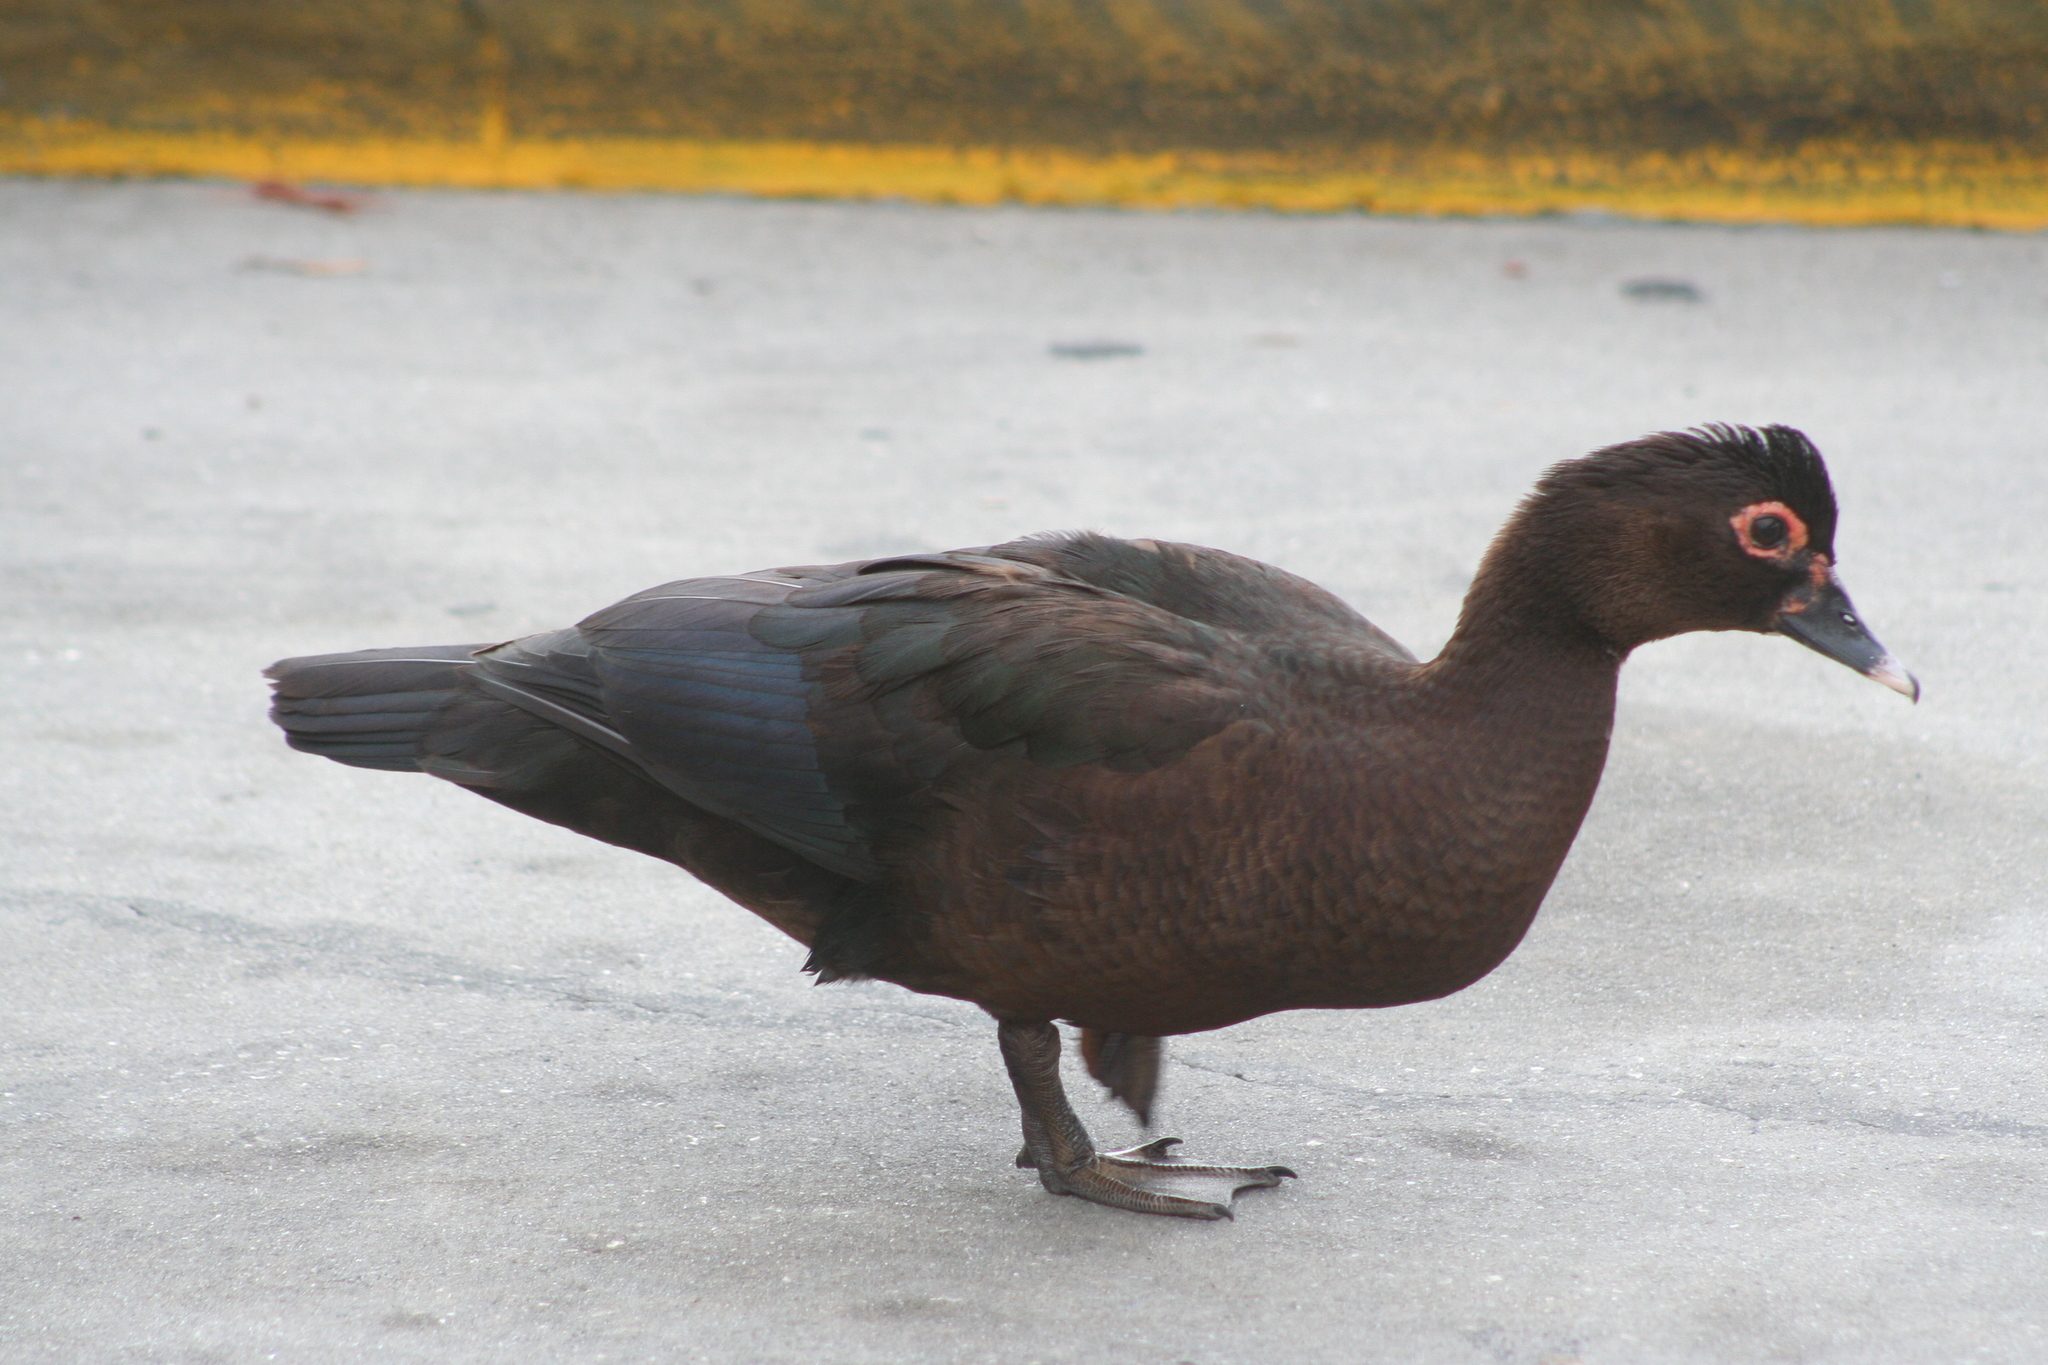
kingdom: Animalia
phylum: Chordata
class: Aves
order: Anseriformes
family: Anatidae
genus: Cairina
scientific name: Cairina moschata
